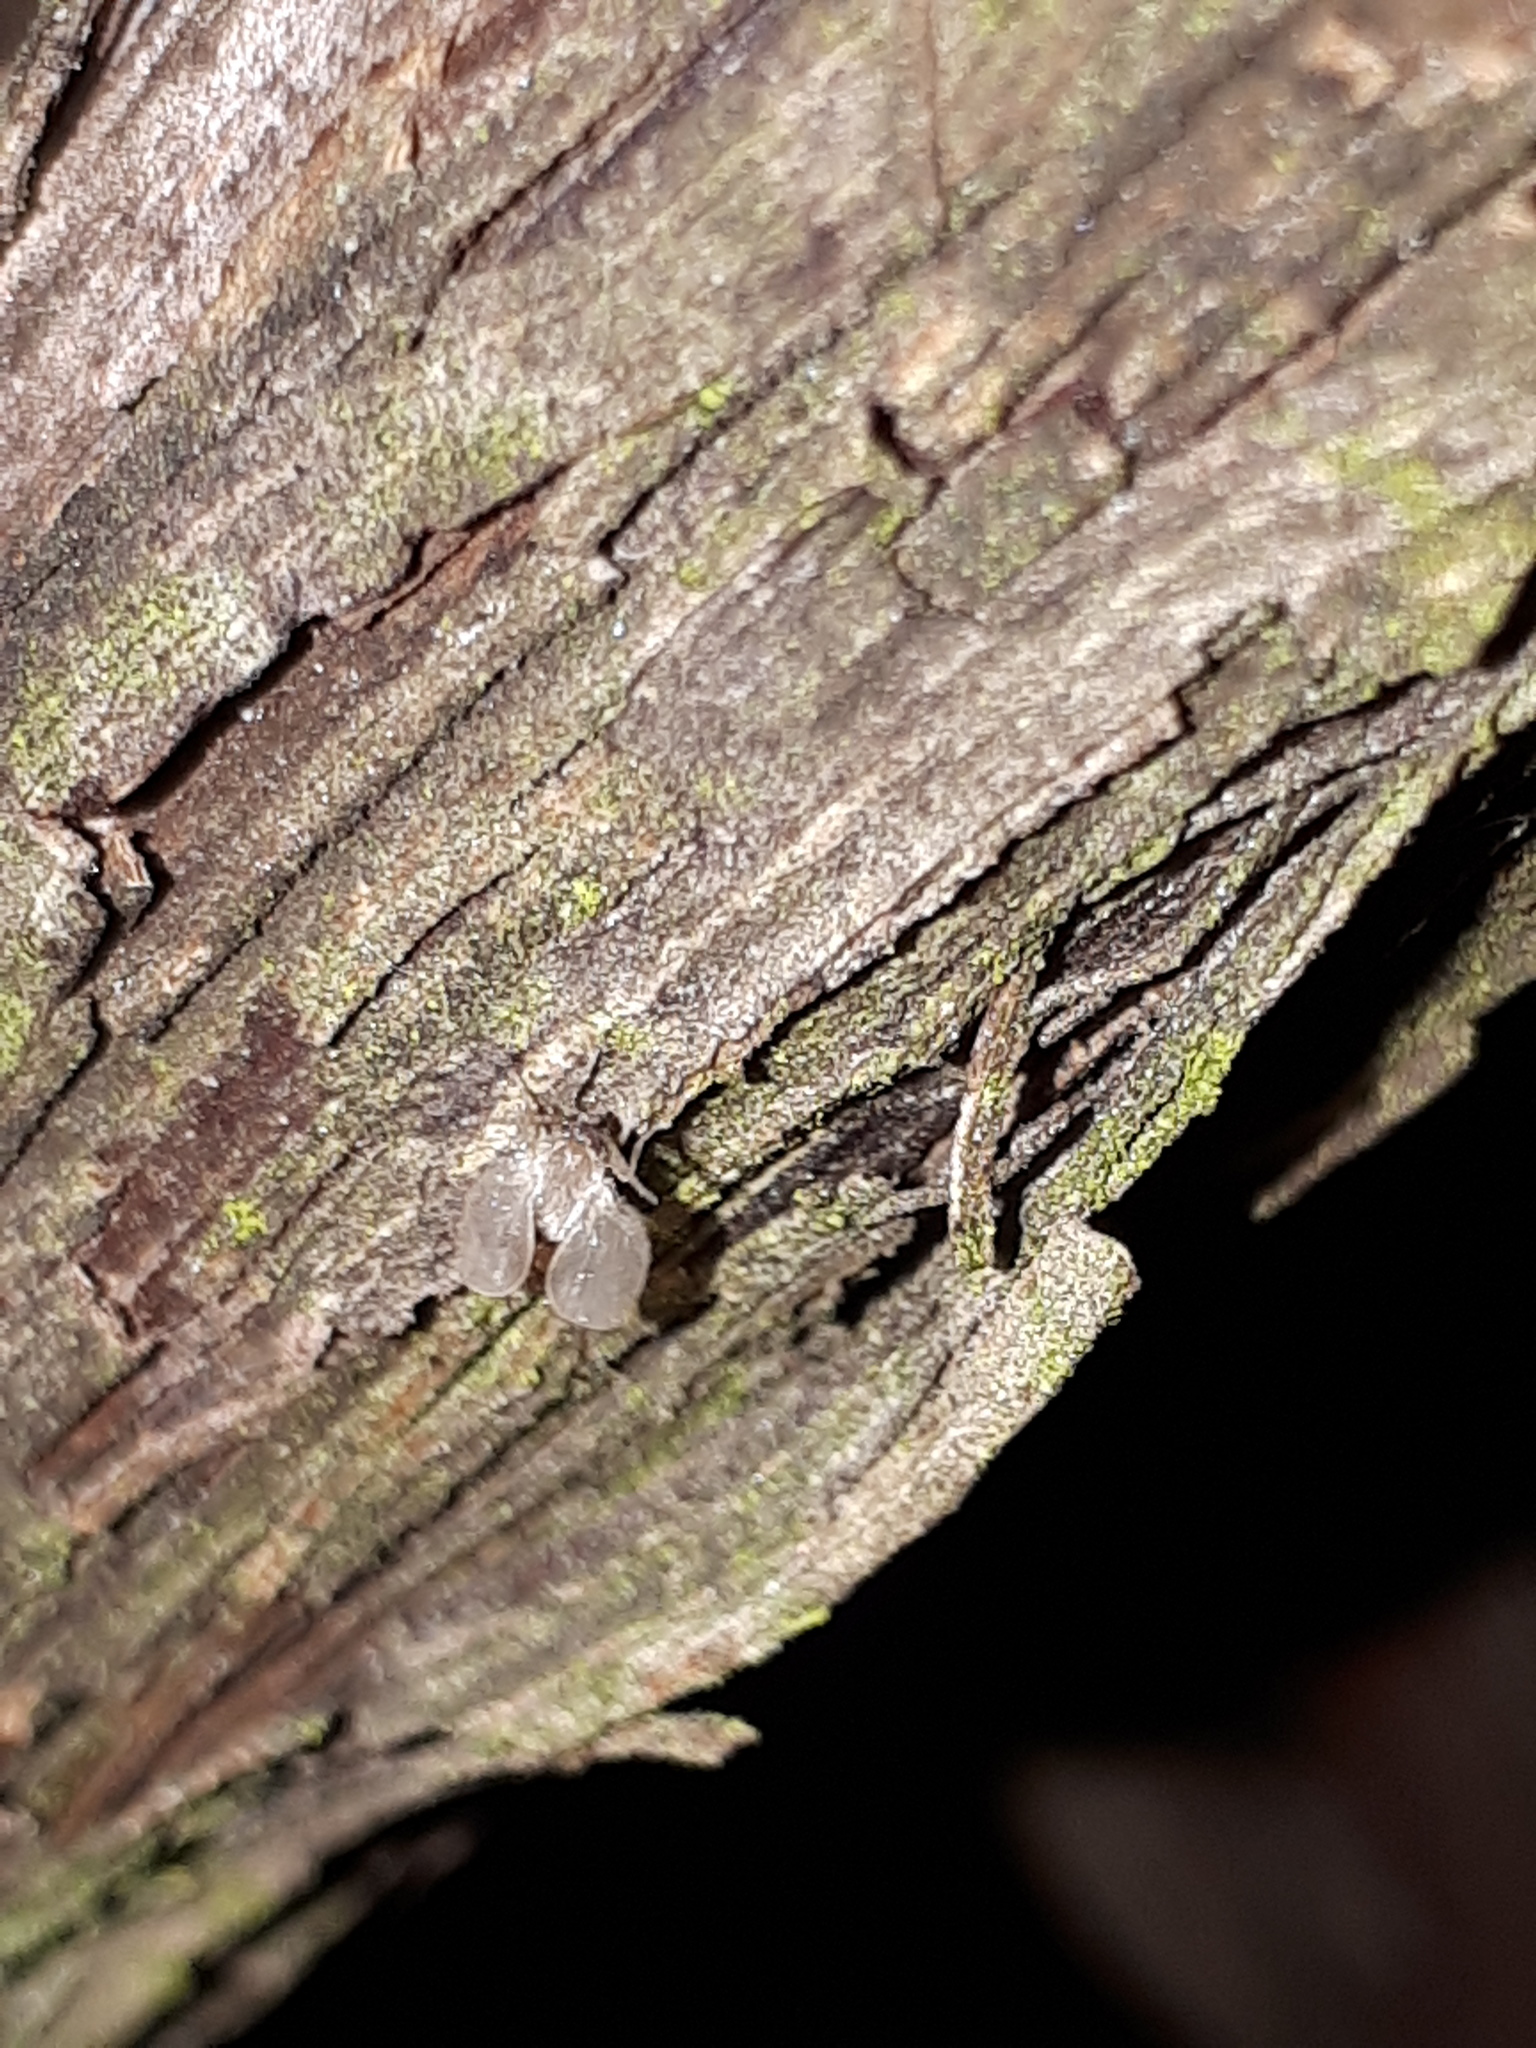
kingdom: Animalia
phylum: Arthropoda
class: Insecta
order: Diptera
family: Psychodidae
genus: Psychoda
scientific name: Psychoda grisescens
